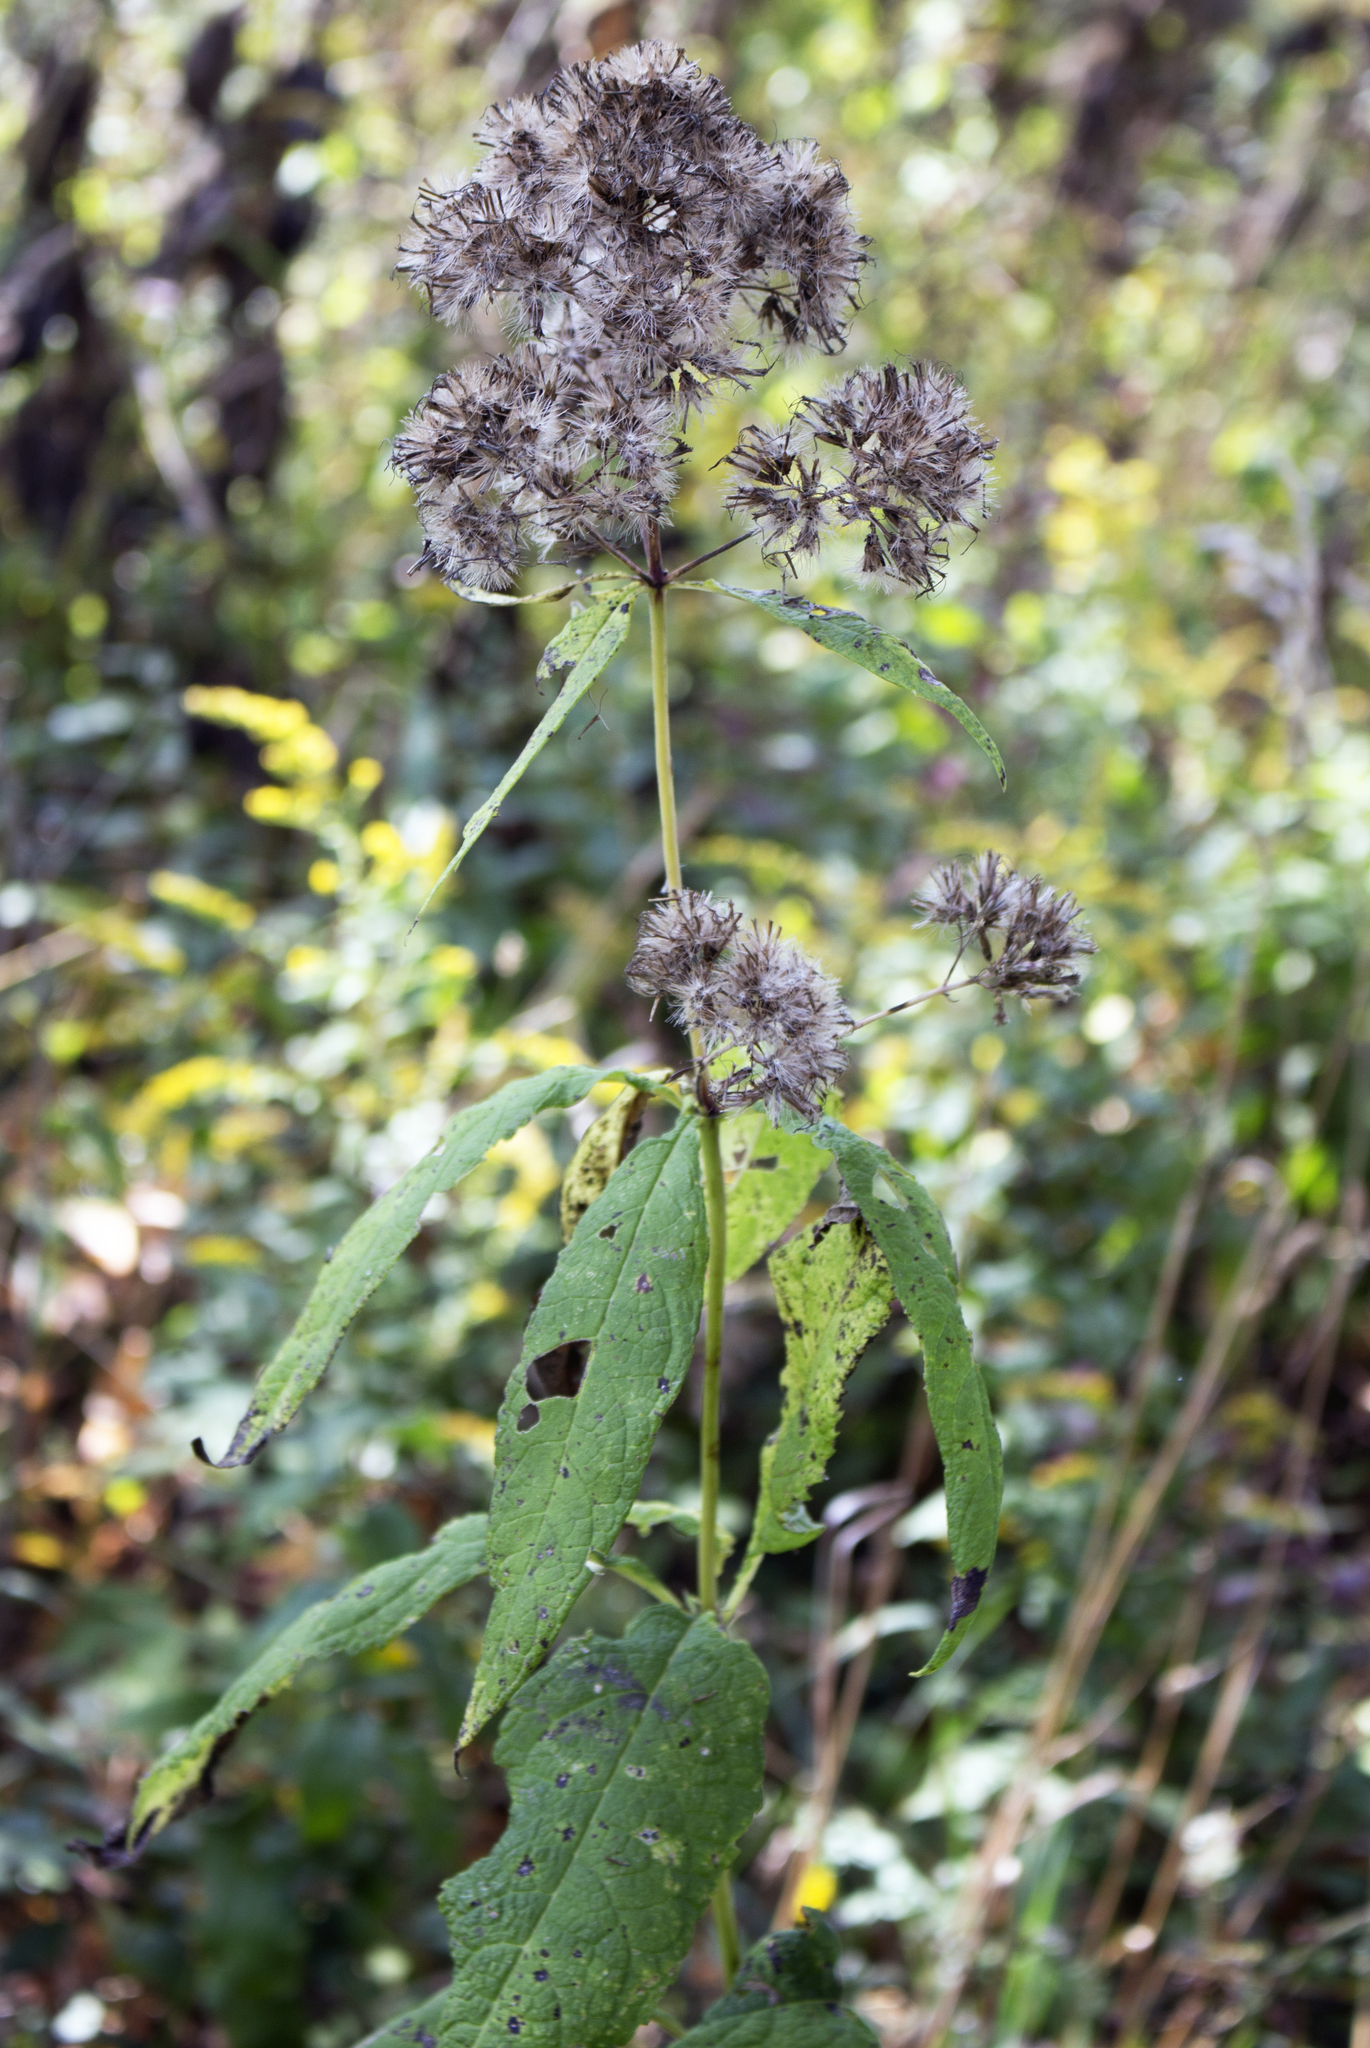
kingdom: Plantae
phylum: Tracheophyta
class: Magnoliopsida
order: Asterales
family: Asteraceae
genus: Eutrochium
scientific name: Eutrochium purpureum
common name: Gravelroot
